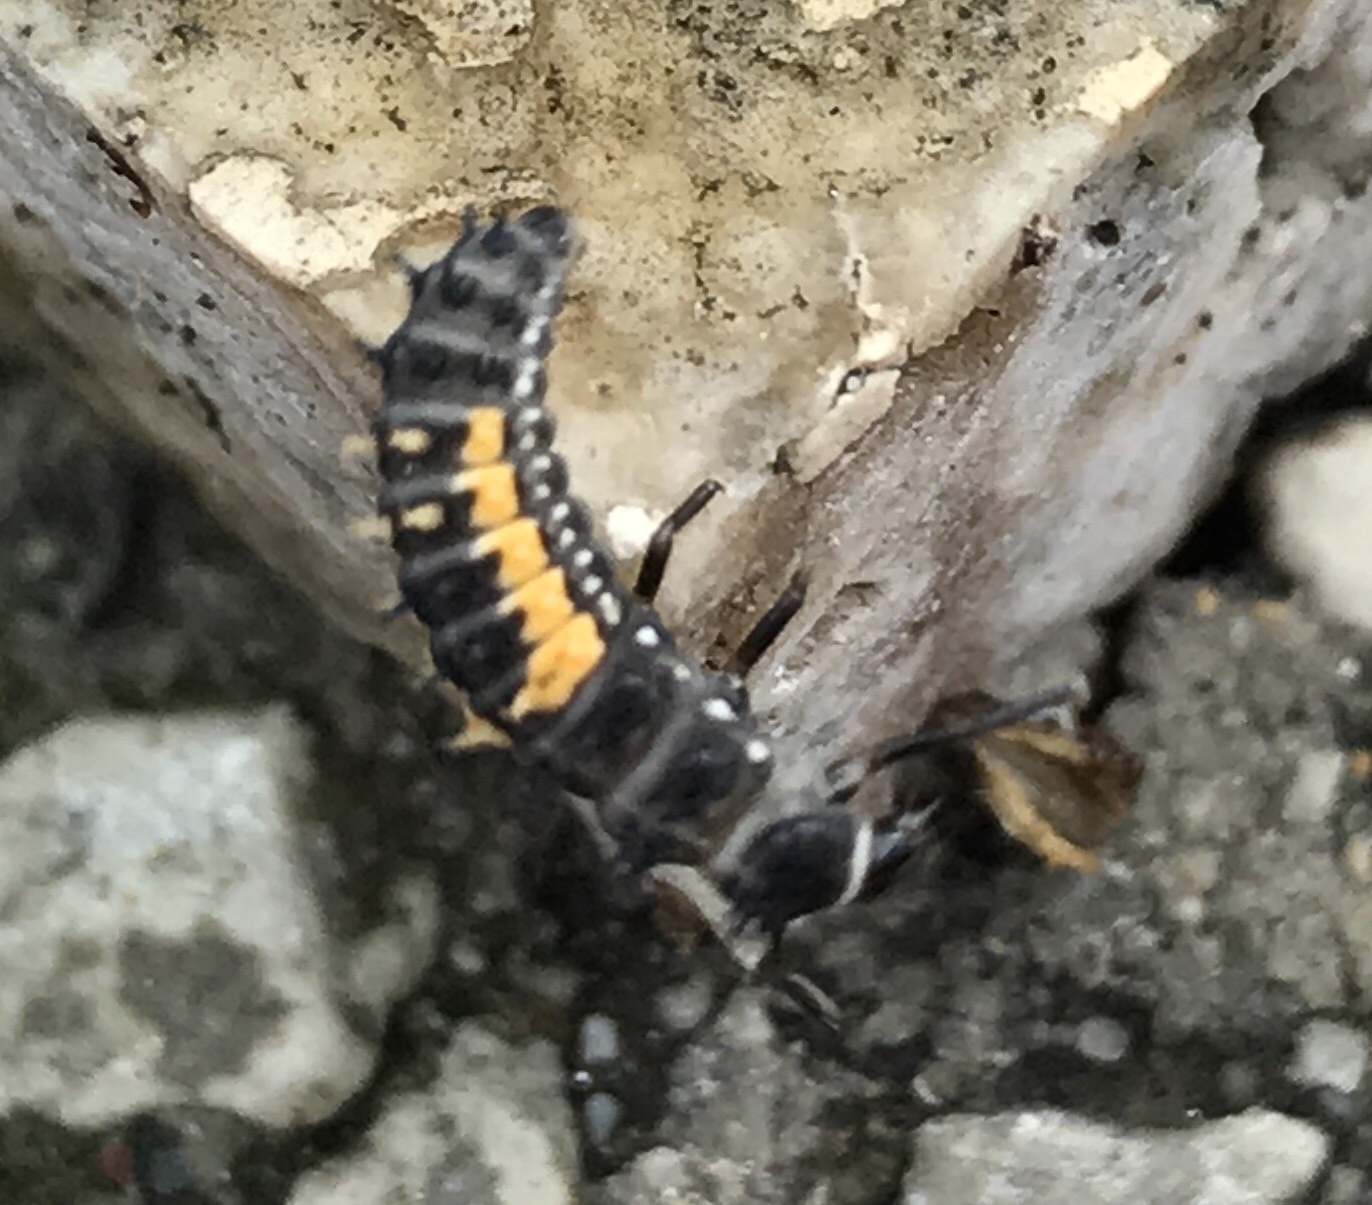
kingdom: Animalia
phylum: Arthropoda
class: Insecta
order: Coleoptera
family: Coccinellidae
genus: Harmonia
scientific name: Harmonia axyridis
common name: Harlequin ladybird
